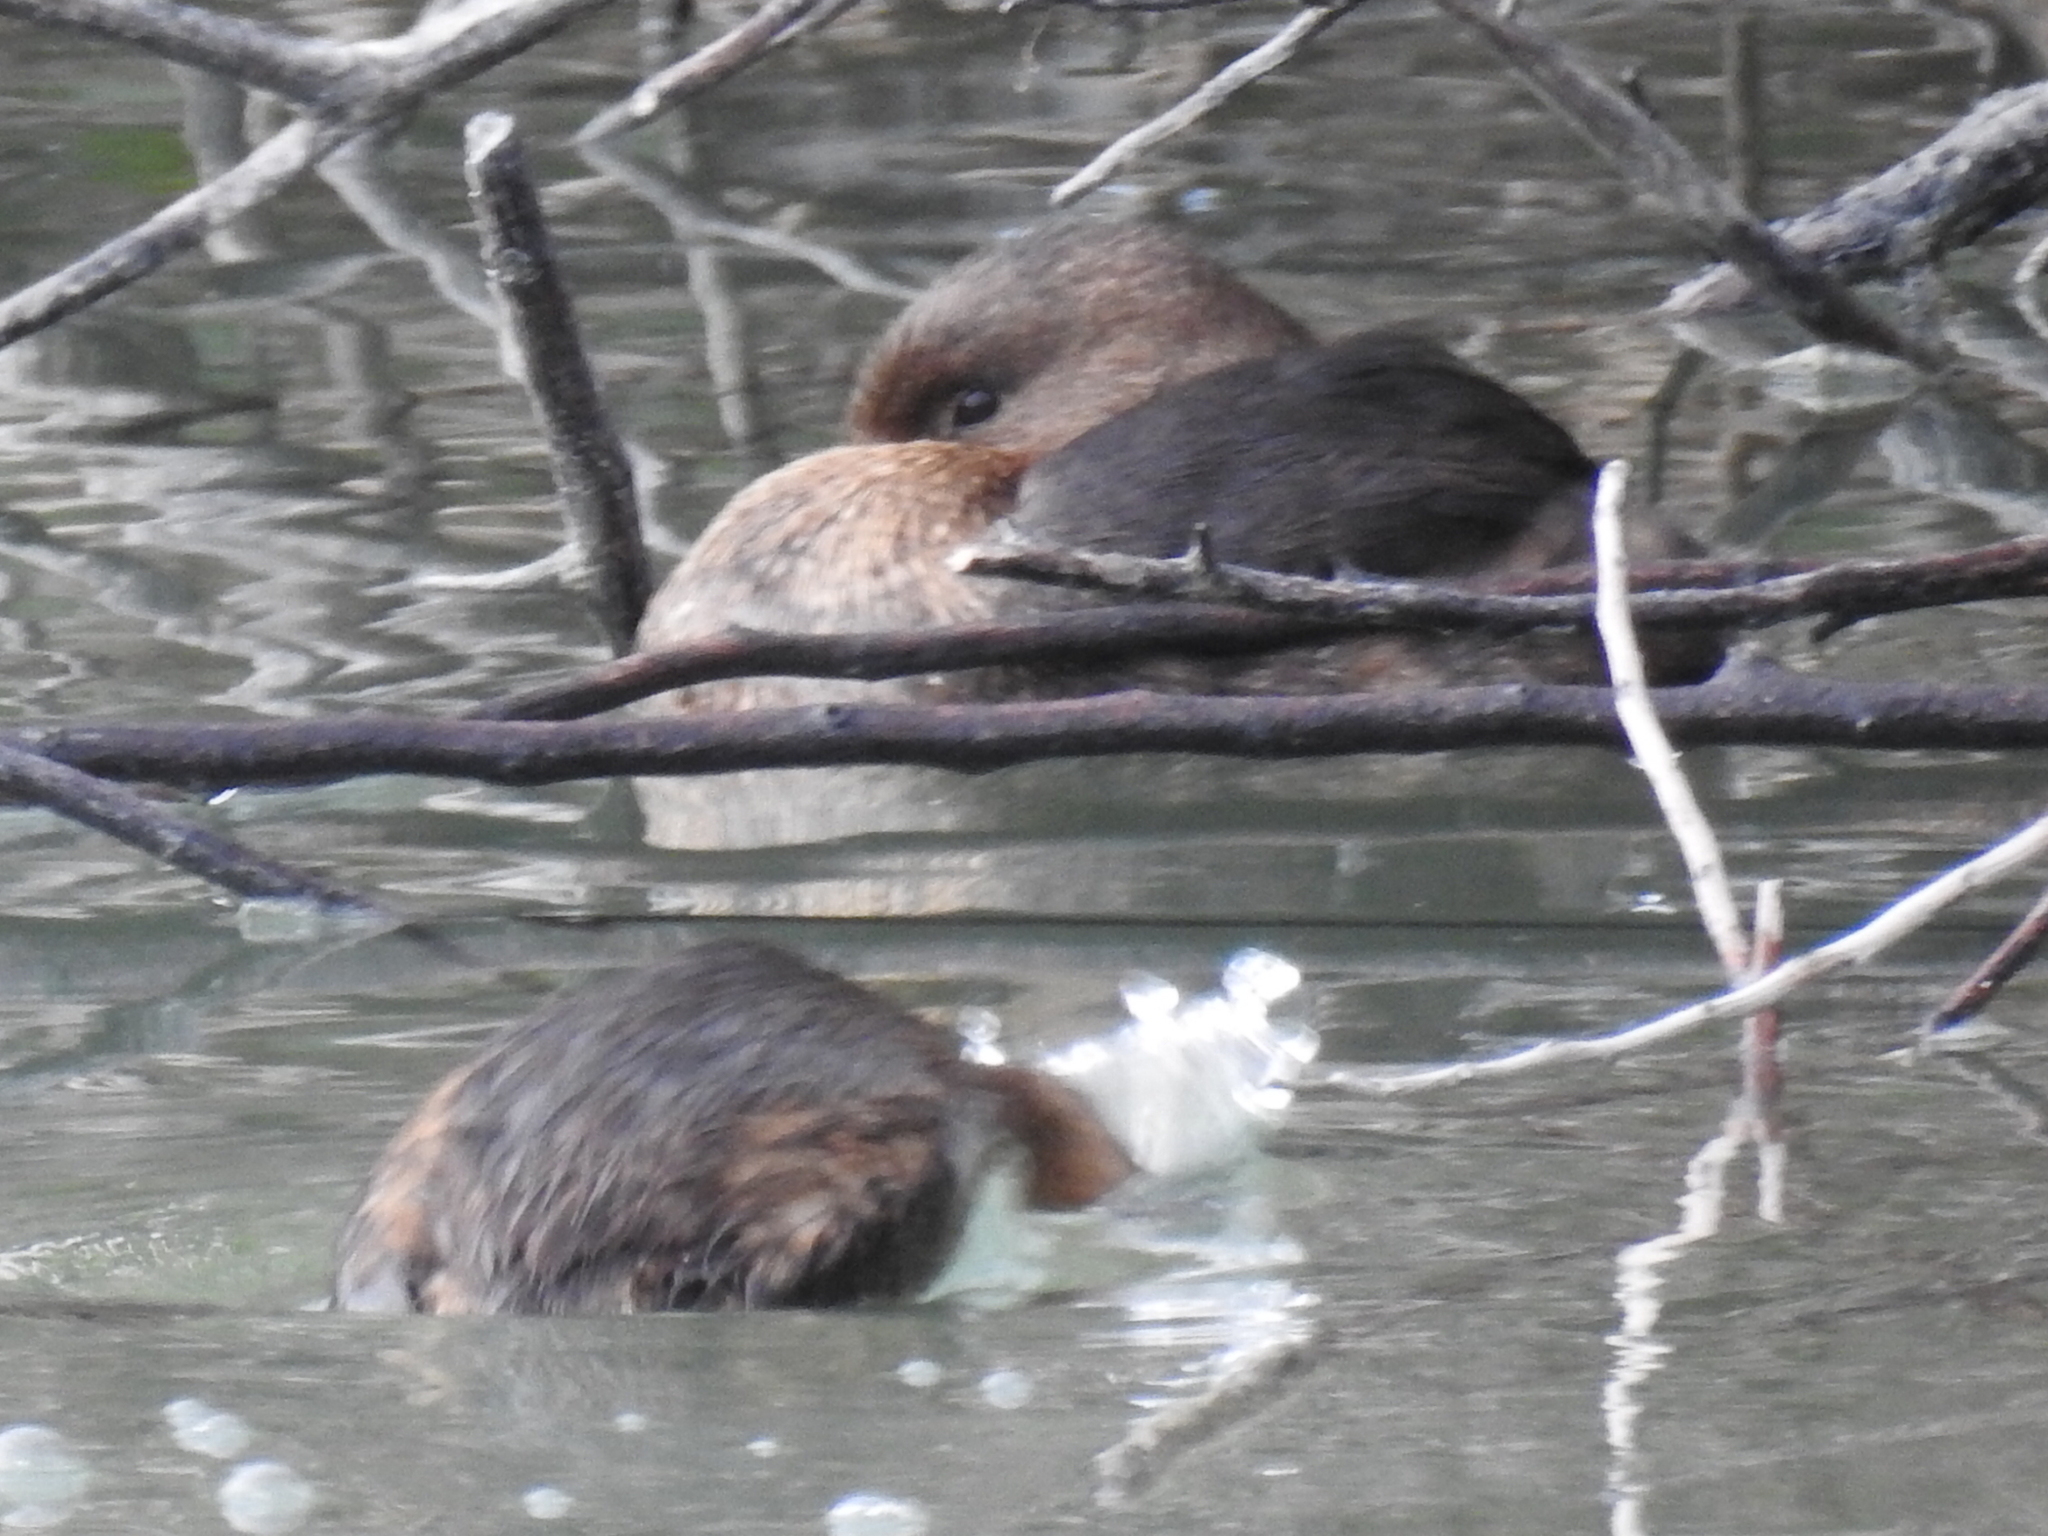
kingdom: Animalia
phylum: Chordata
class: Aves
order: Podicipediformes
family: Podicipedidae
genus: Podilymbus
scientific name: Podilymbus podiceps
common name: Pied-billed grebe
